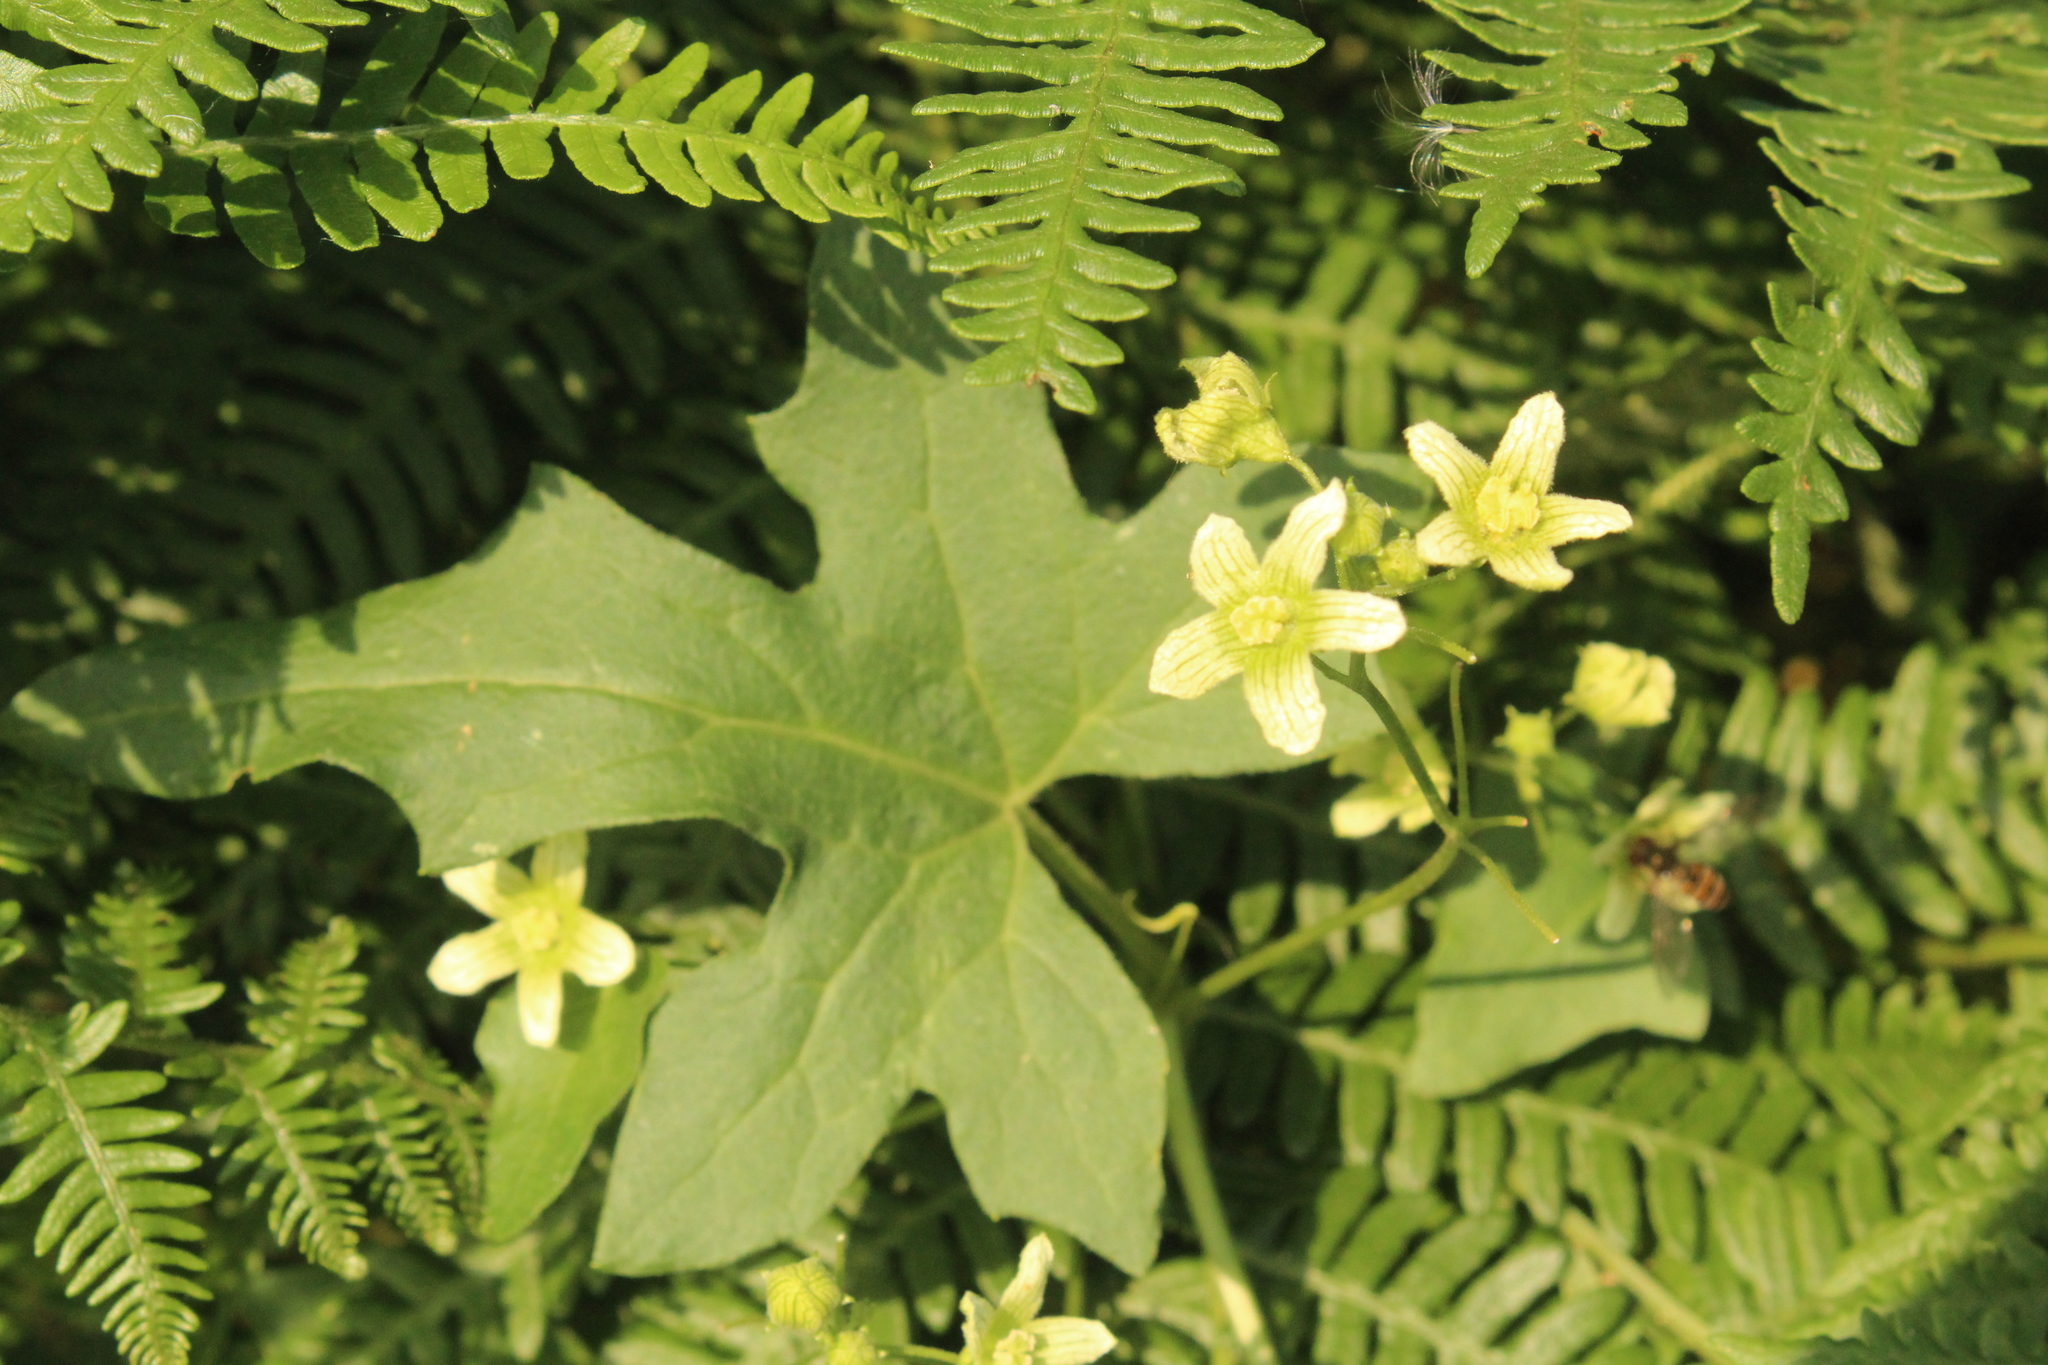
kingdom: Plantae
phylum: Tracheophyta
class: Magnoliopsida
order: Cucurbitales
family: Cucurbitaceae
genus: Bryonia
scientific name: Bryonia cretica
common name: Cretan bryony
